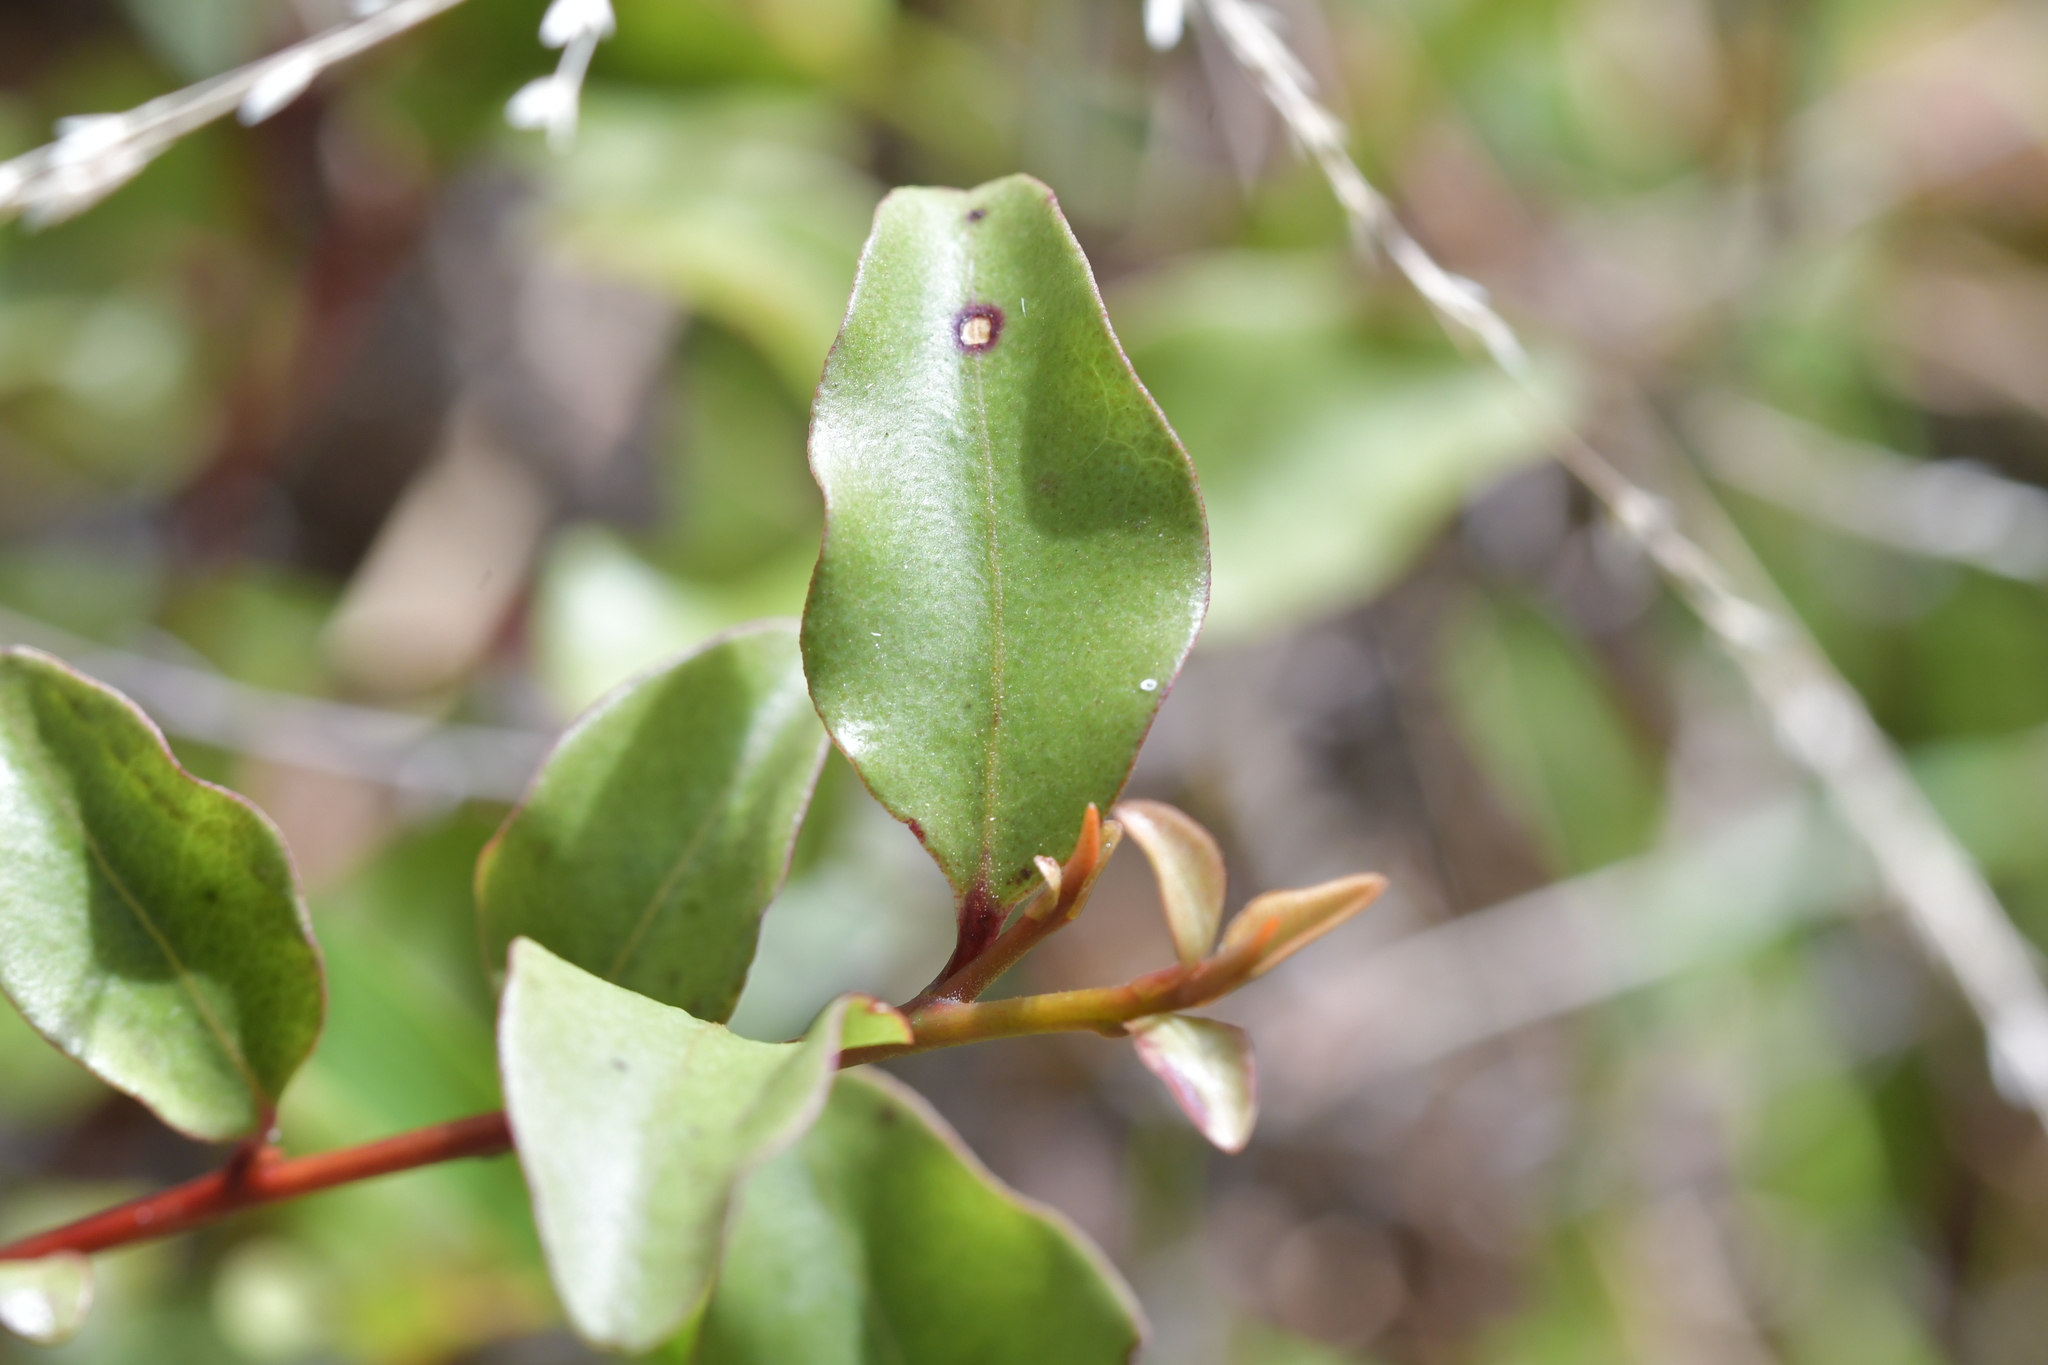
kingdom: Plantae
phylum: Tracheophyta
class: Magnoliopsida
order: Ericales
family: Primulaceae
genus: Myrsine
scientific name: Myrsine australis
